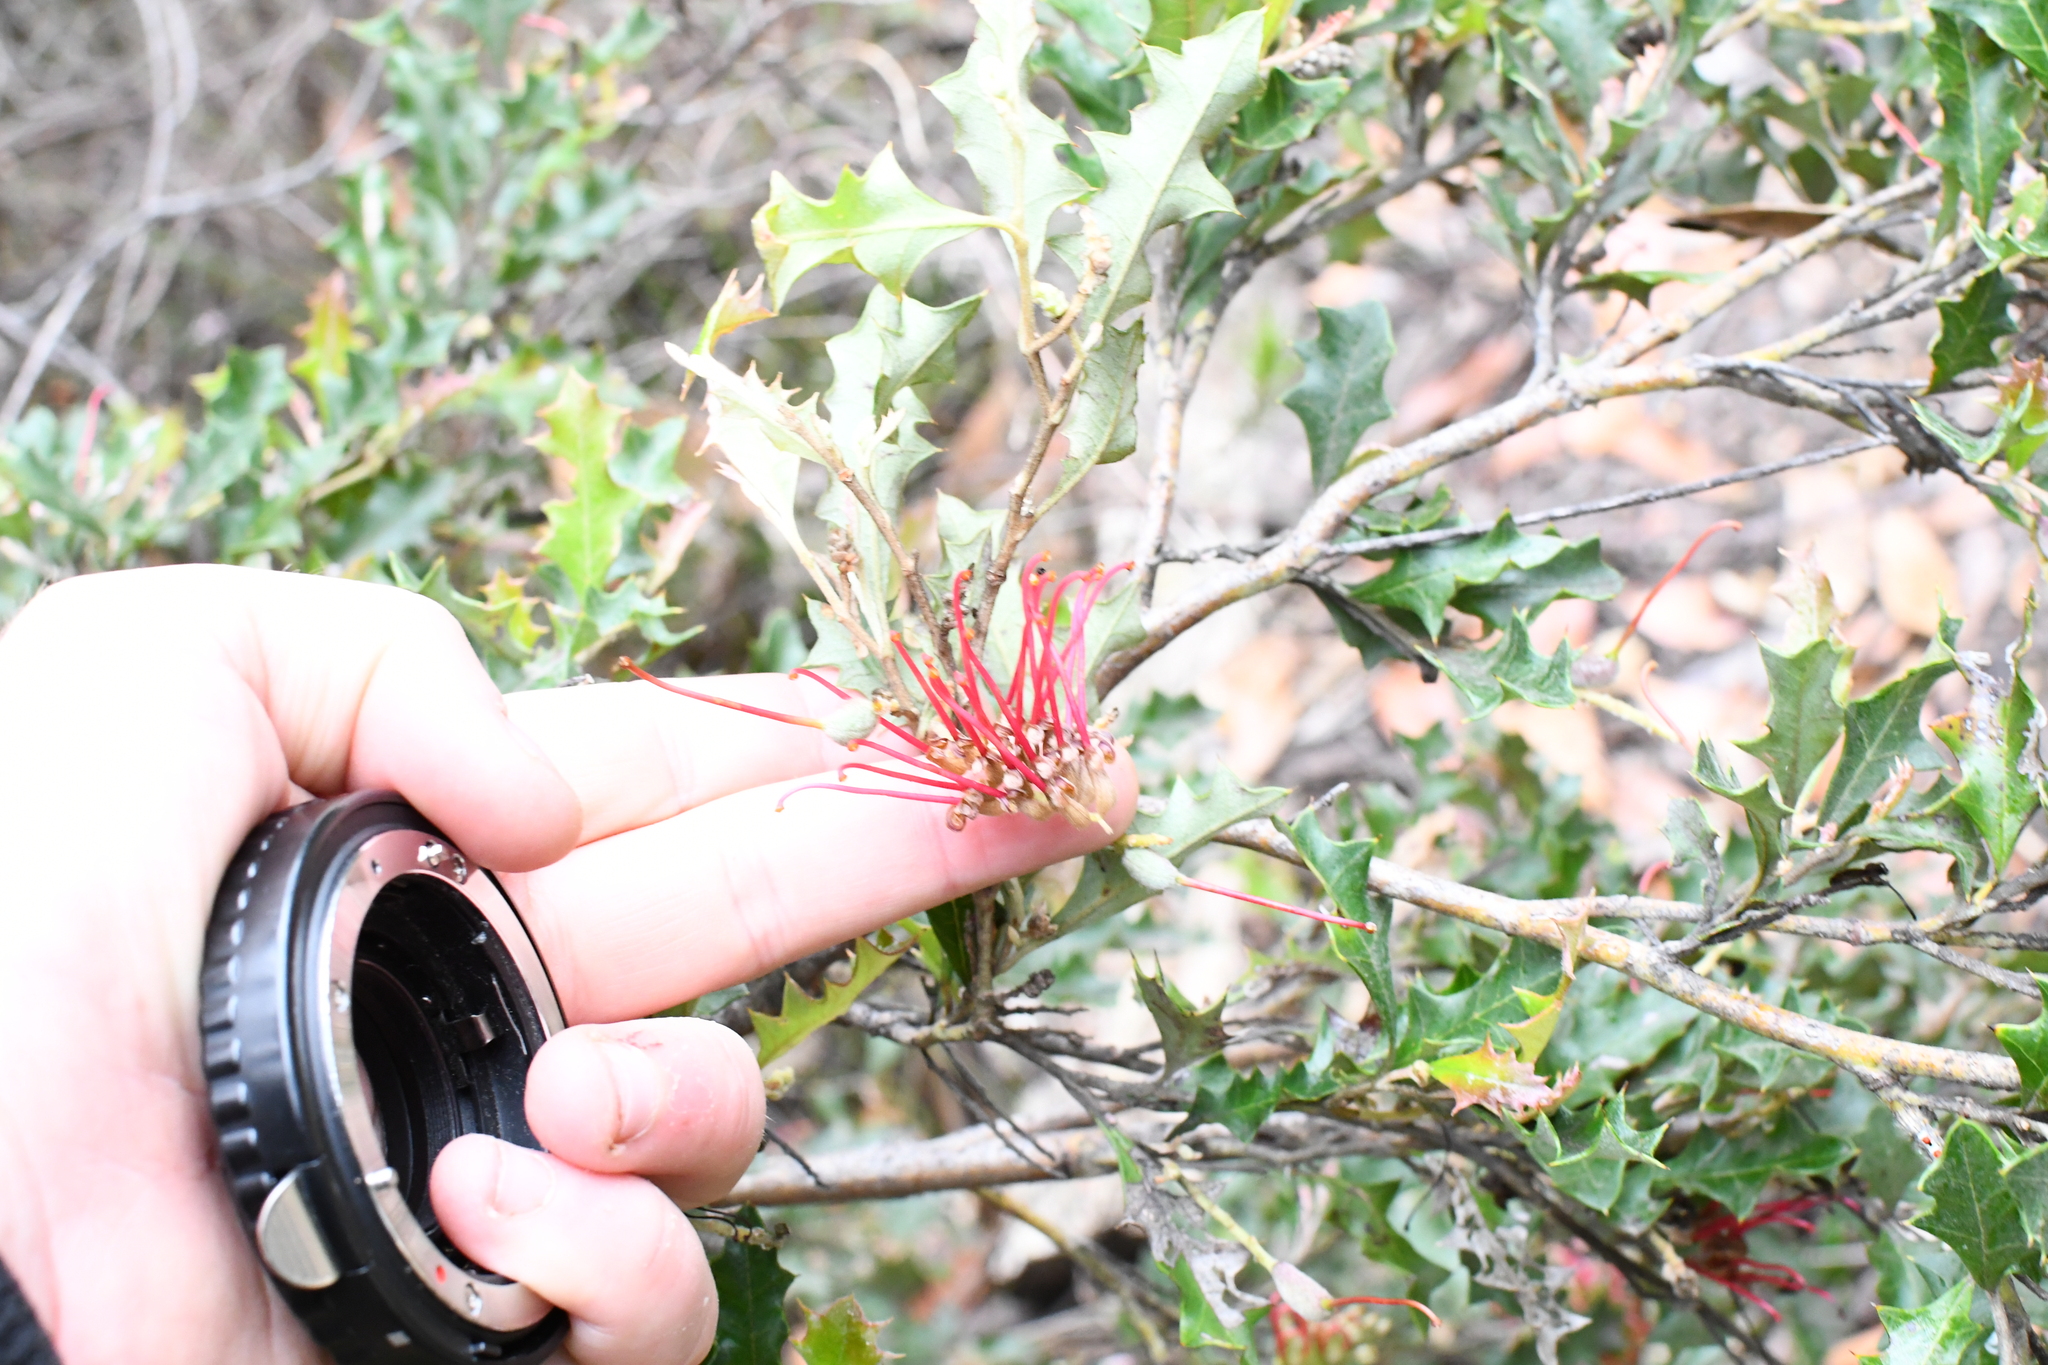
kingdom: Plantae
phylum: Tracheophyta
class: Magnoliopsida
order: Proteales
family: Proteaceae
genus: Grevillea
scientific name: Grevillea aquifolium
